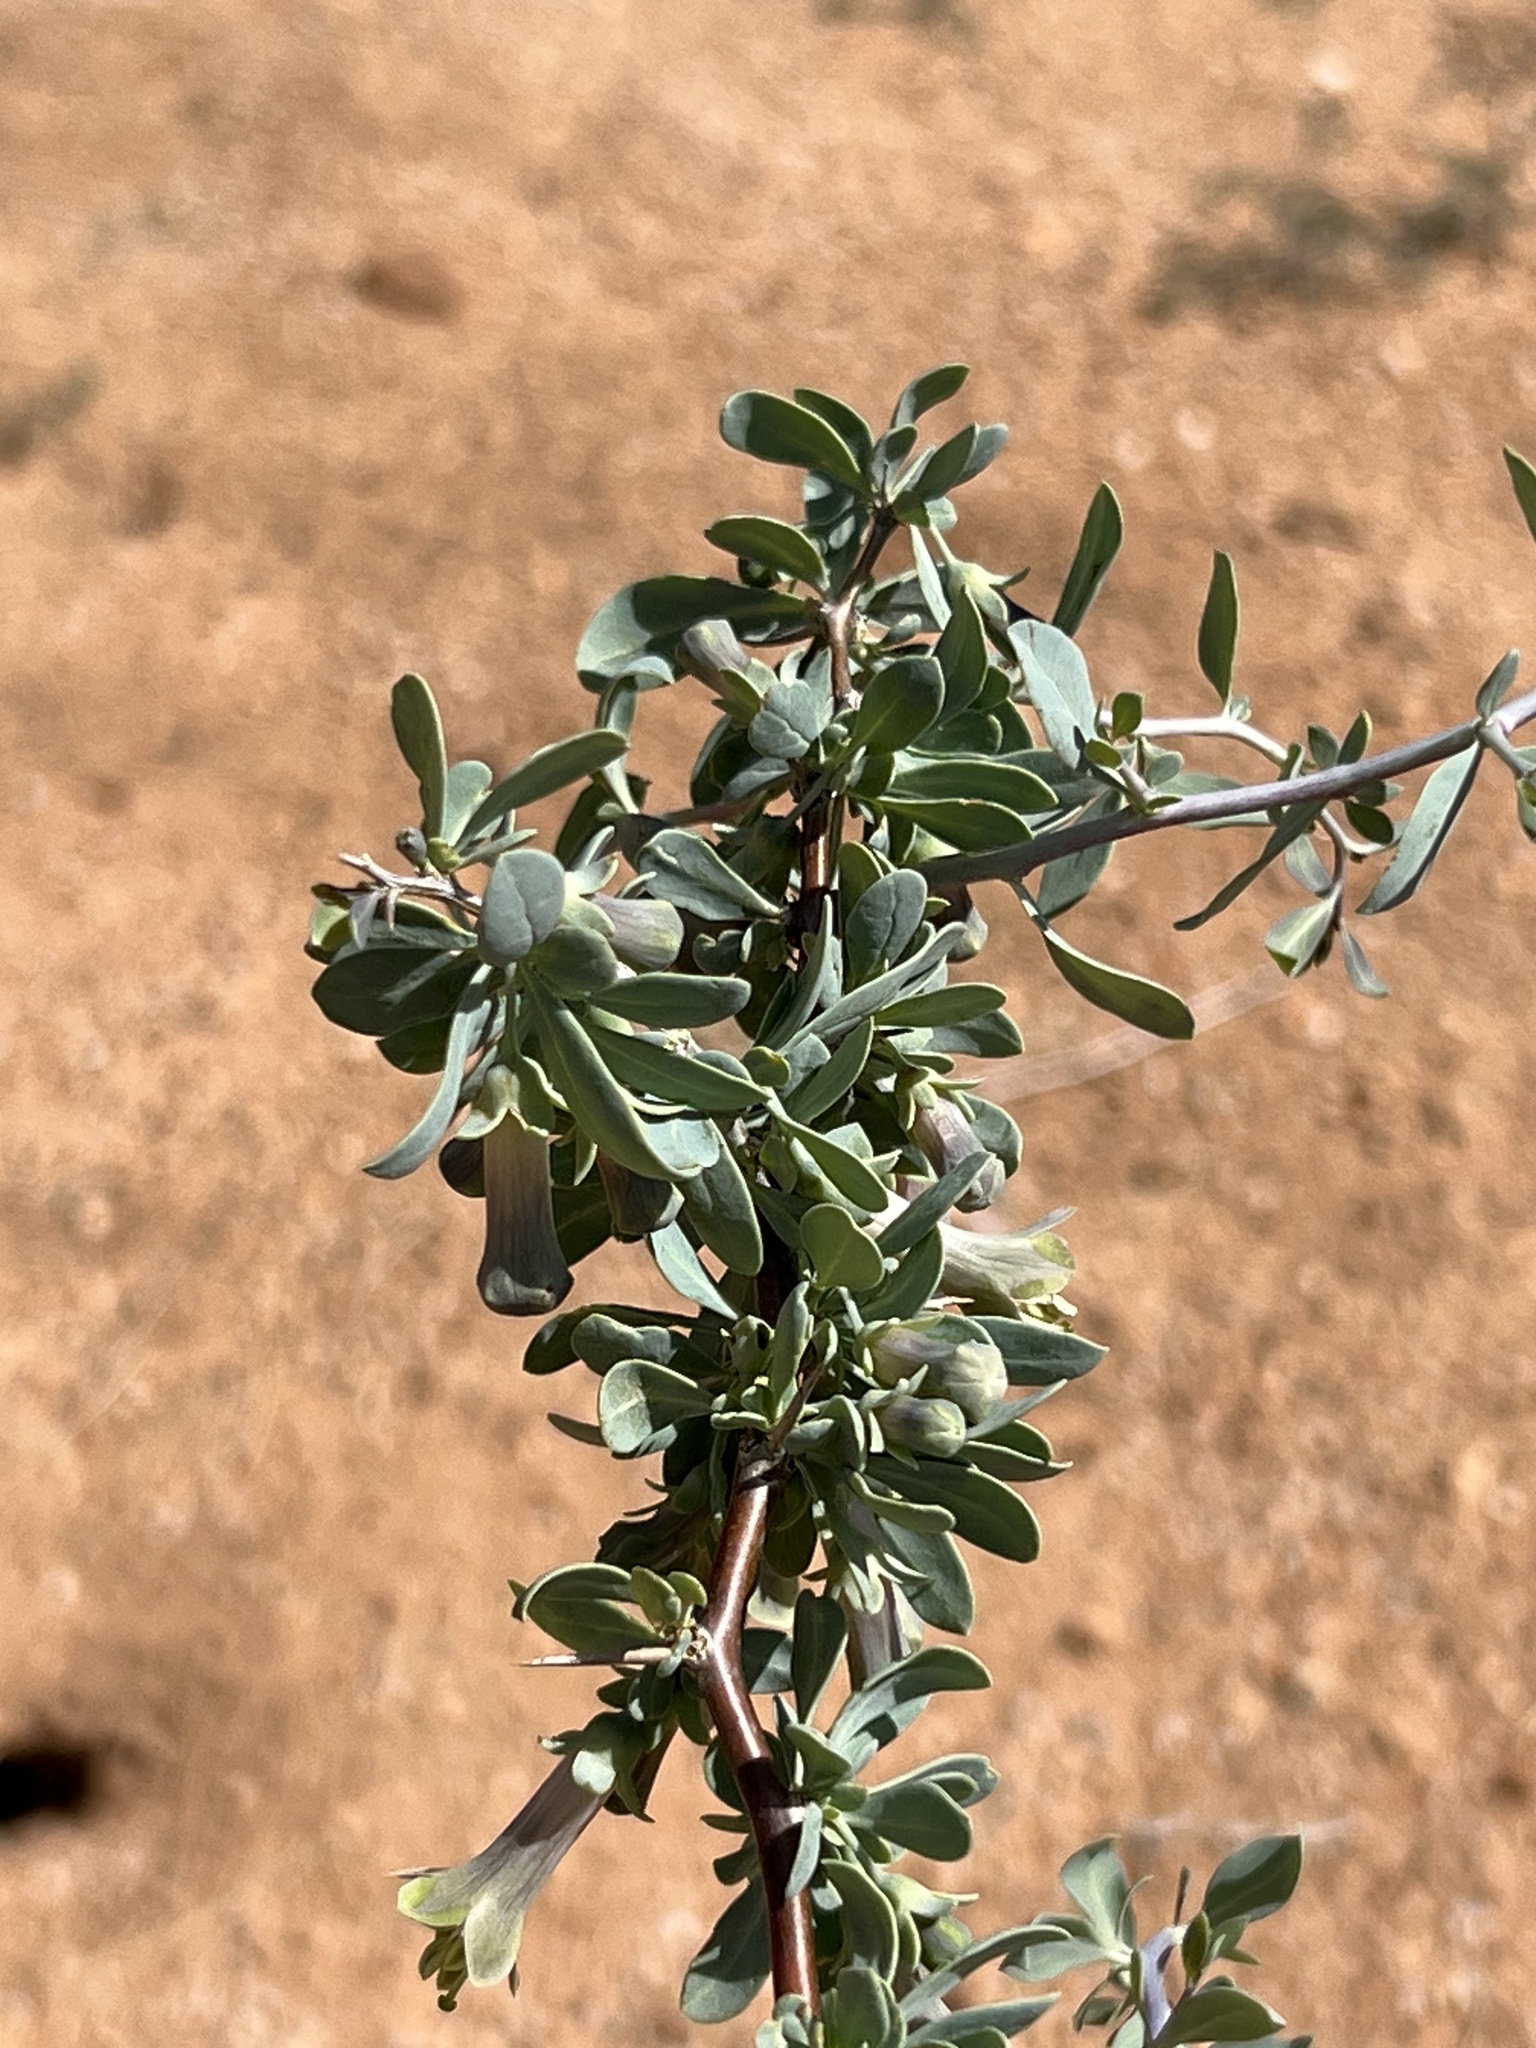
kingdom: Plantae
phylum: Tracheophyta
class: Magnoliopsida
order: Solanales
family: Solanaceae
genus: Lycium
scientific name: Lycium pallidum
